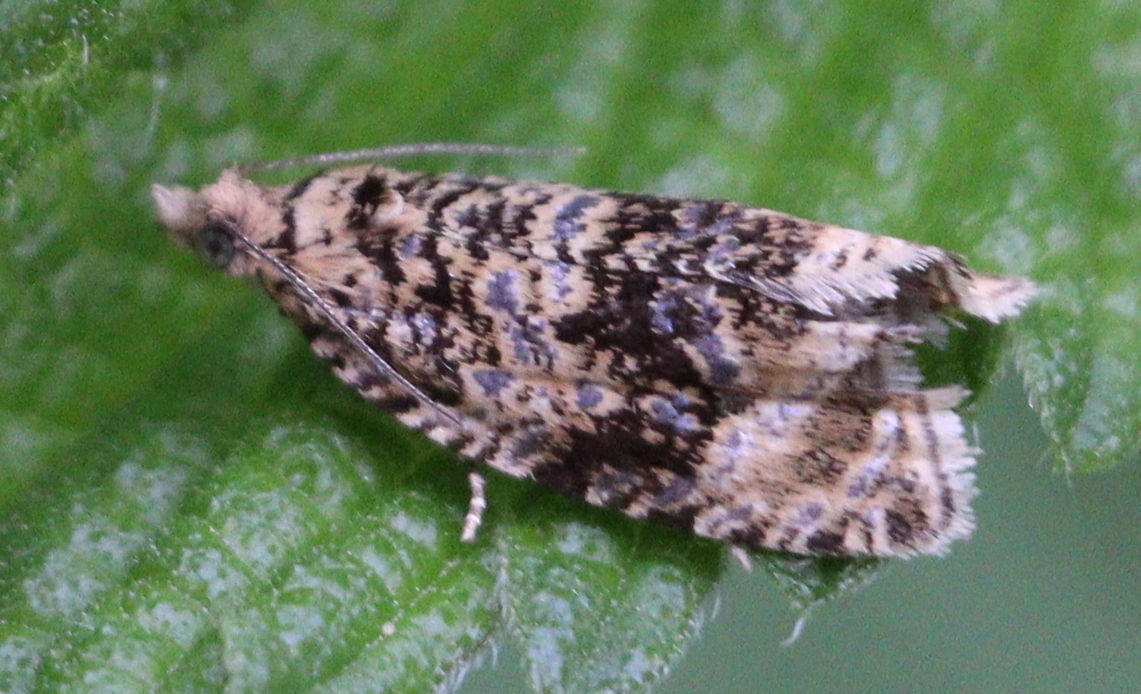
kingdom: Animalia
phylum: Arthropoda
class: Insecta
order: Lepidoptera
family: Tortricidae
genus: Syricoris
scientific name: Syricoris lacunana
